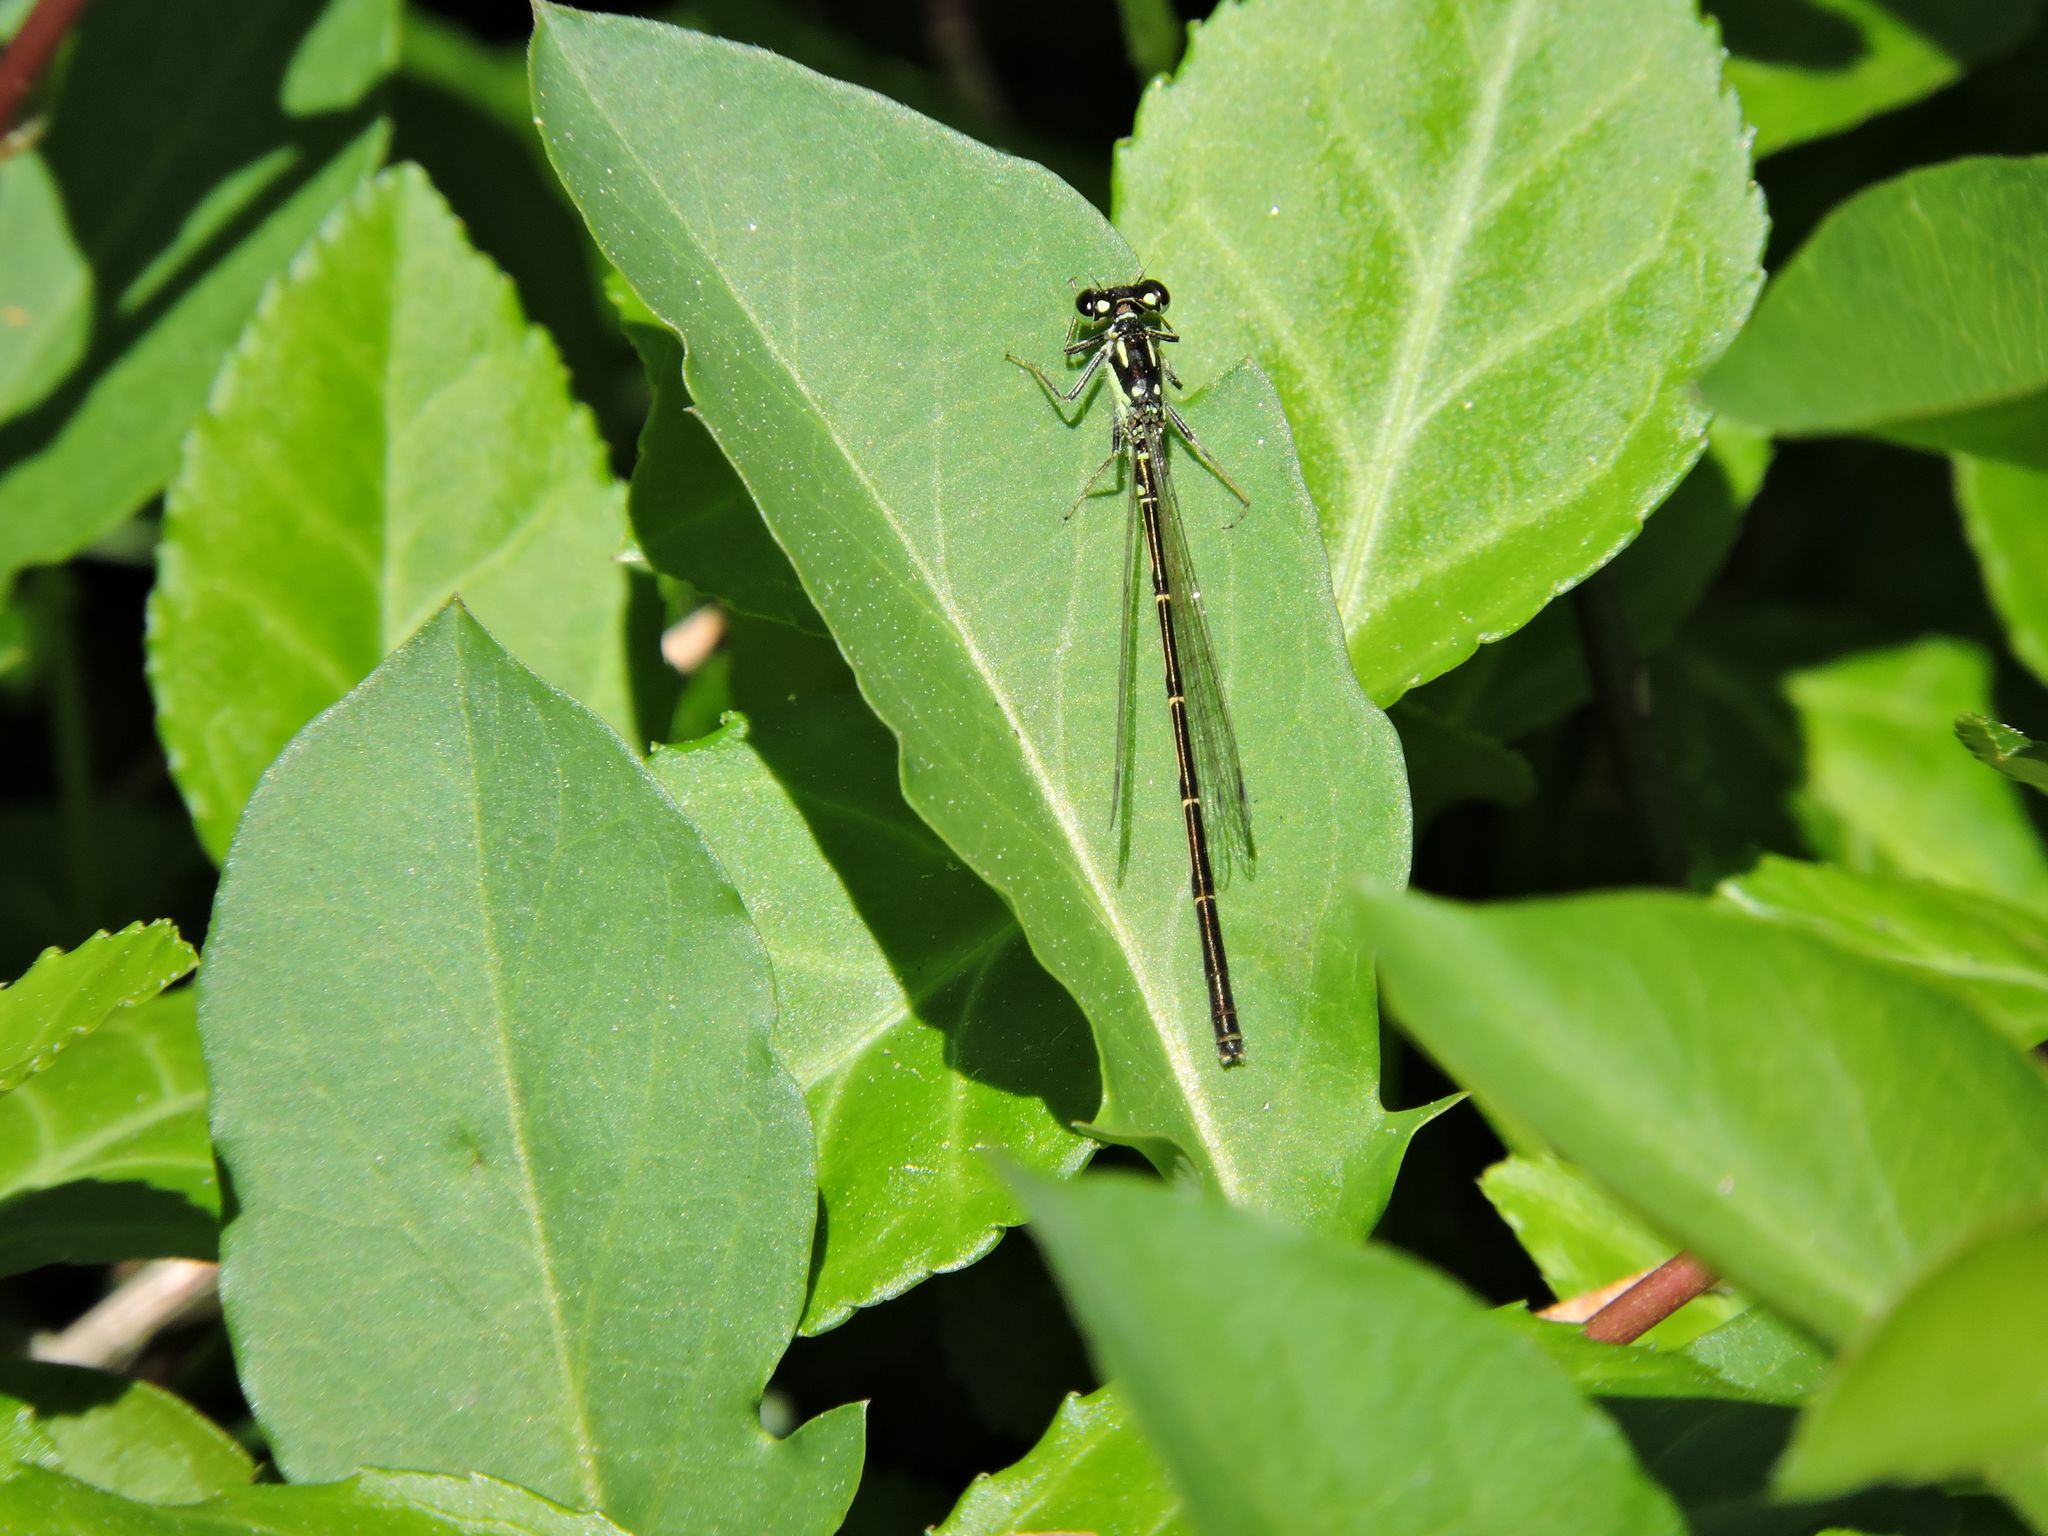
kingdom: Animalia
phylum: Arthropoda
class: Insecta
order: Odonata
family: Coenagrionidae
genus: Ischnura
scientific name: Ischnura posita
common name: Fragile forktail
